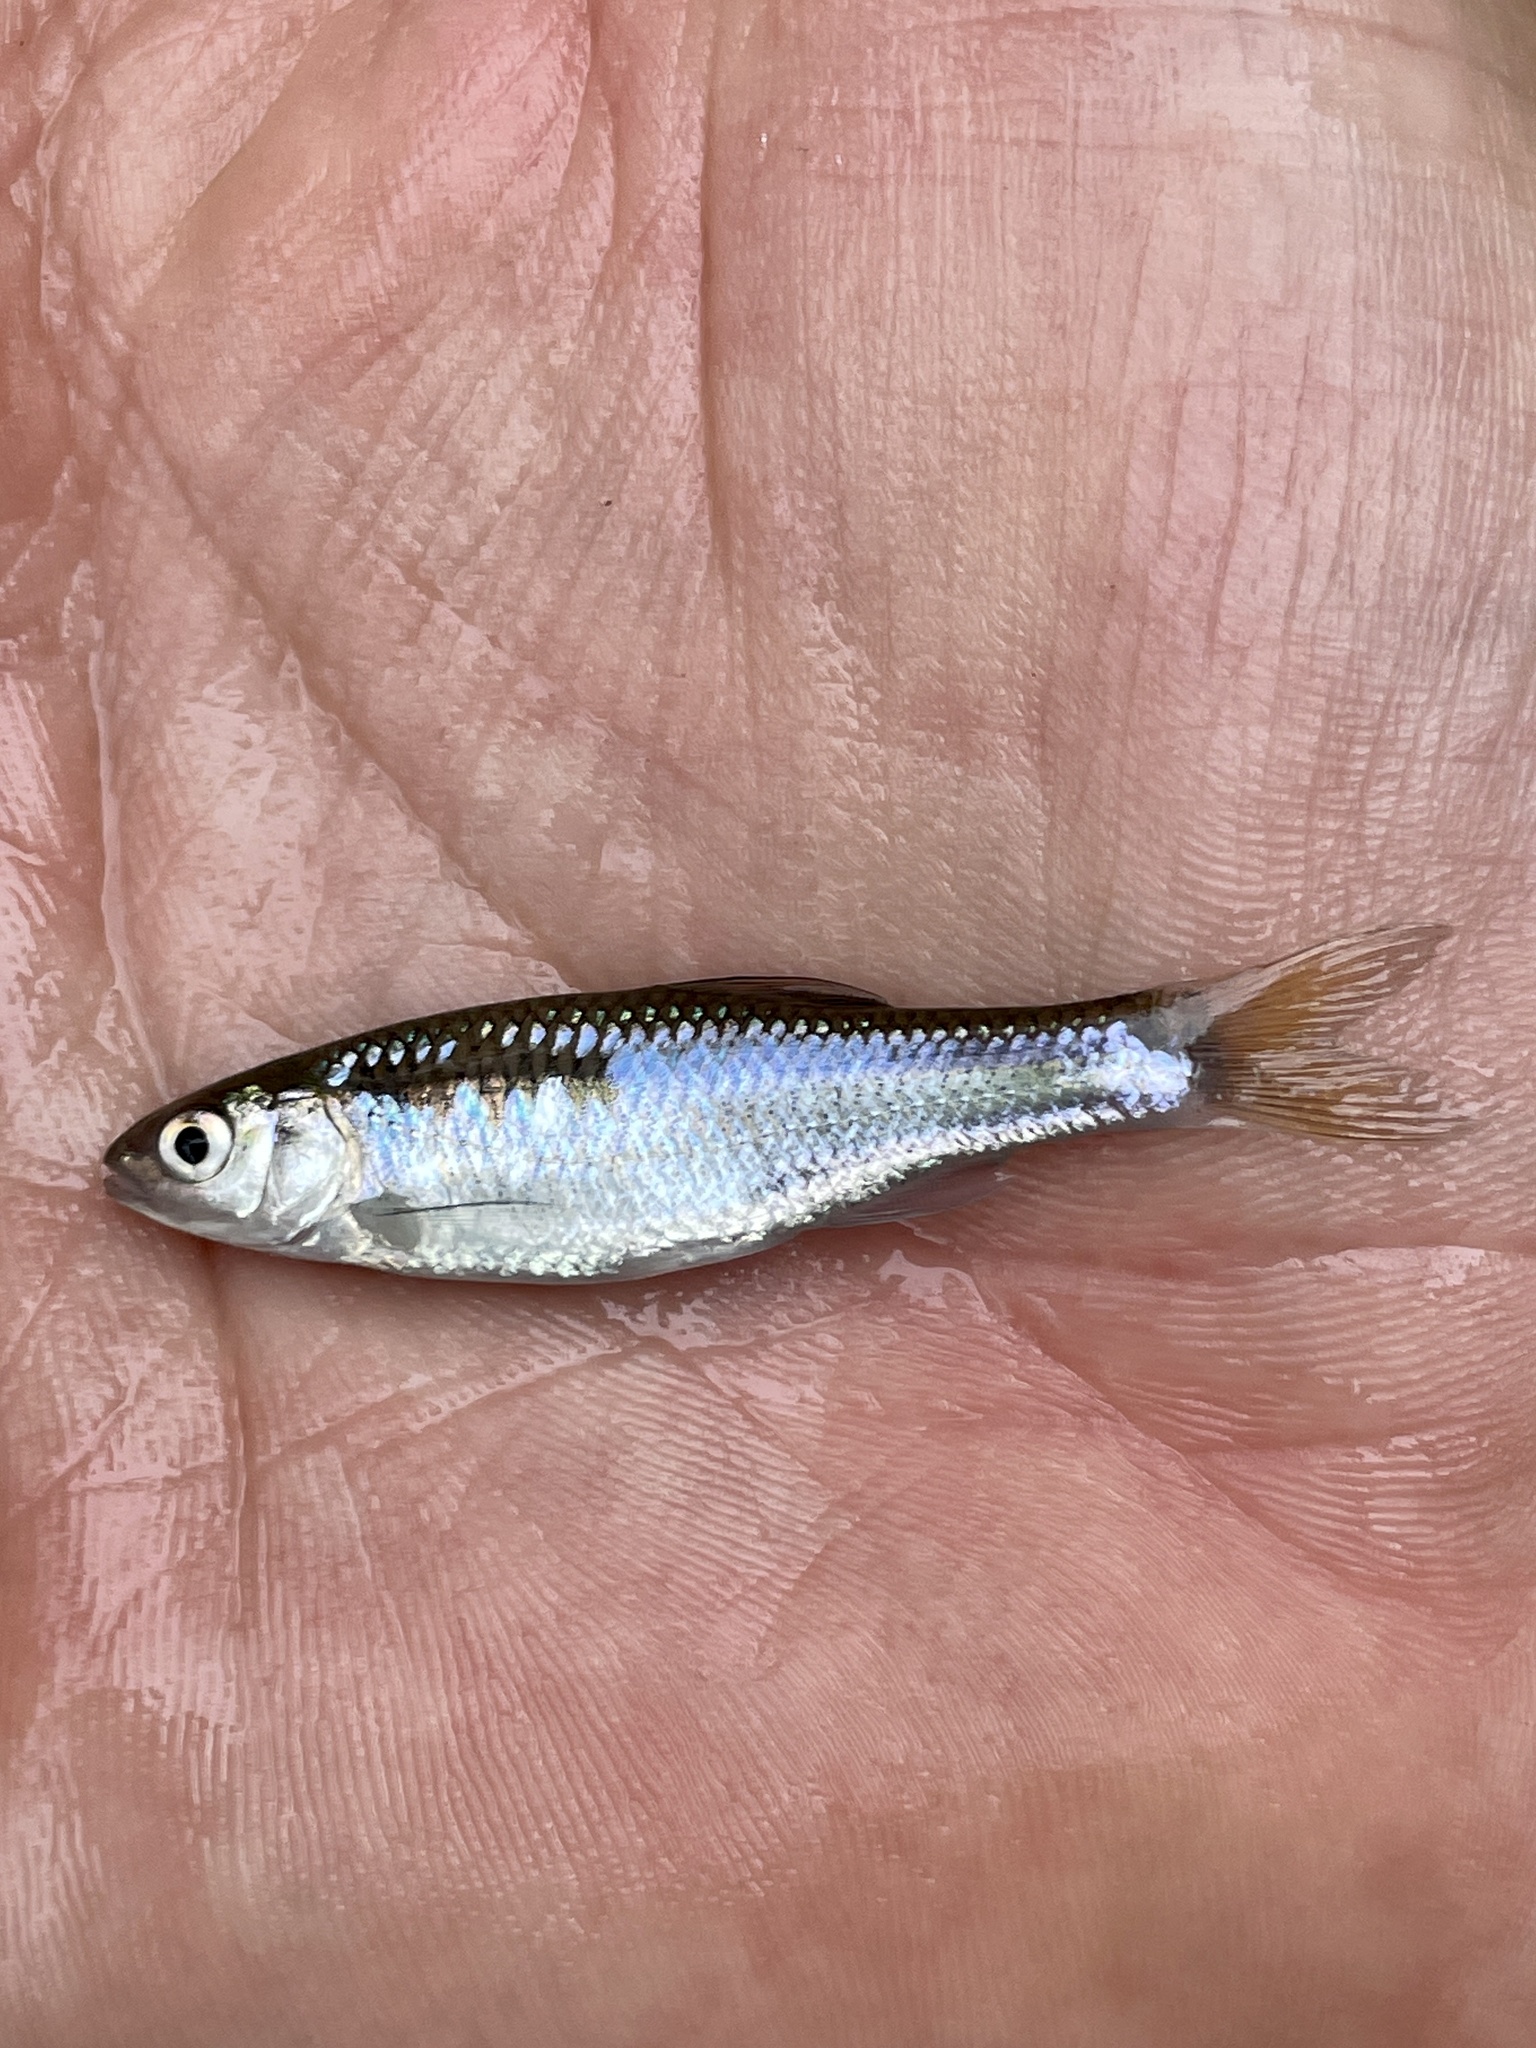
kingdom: Animalia
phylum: Chordata
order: Cypriniformes
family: Cyprinidae
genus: Cyprinella
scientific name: Cyprinella lutrensis
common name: Red shiner
